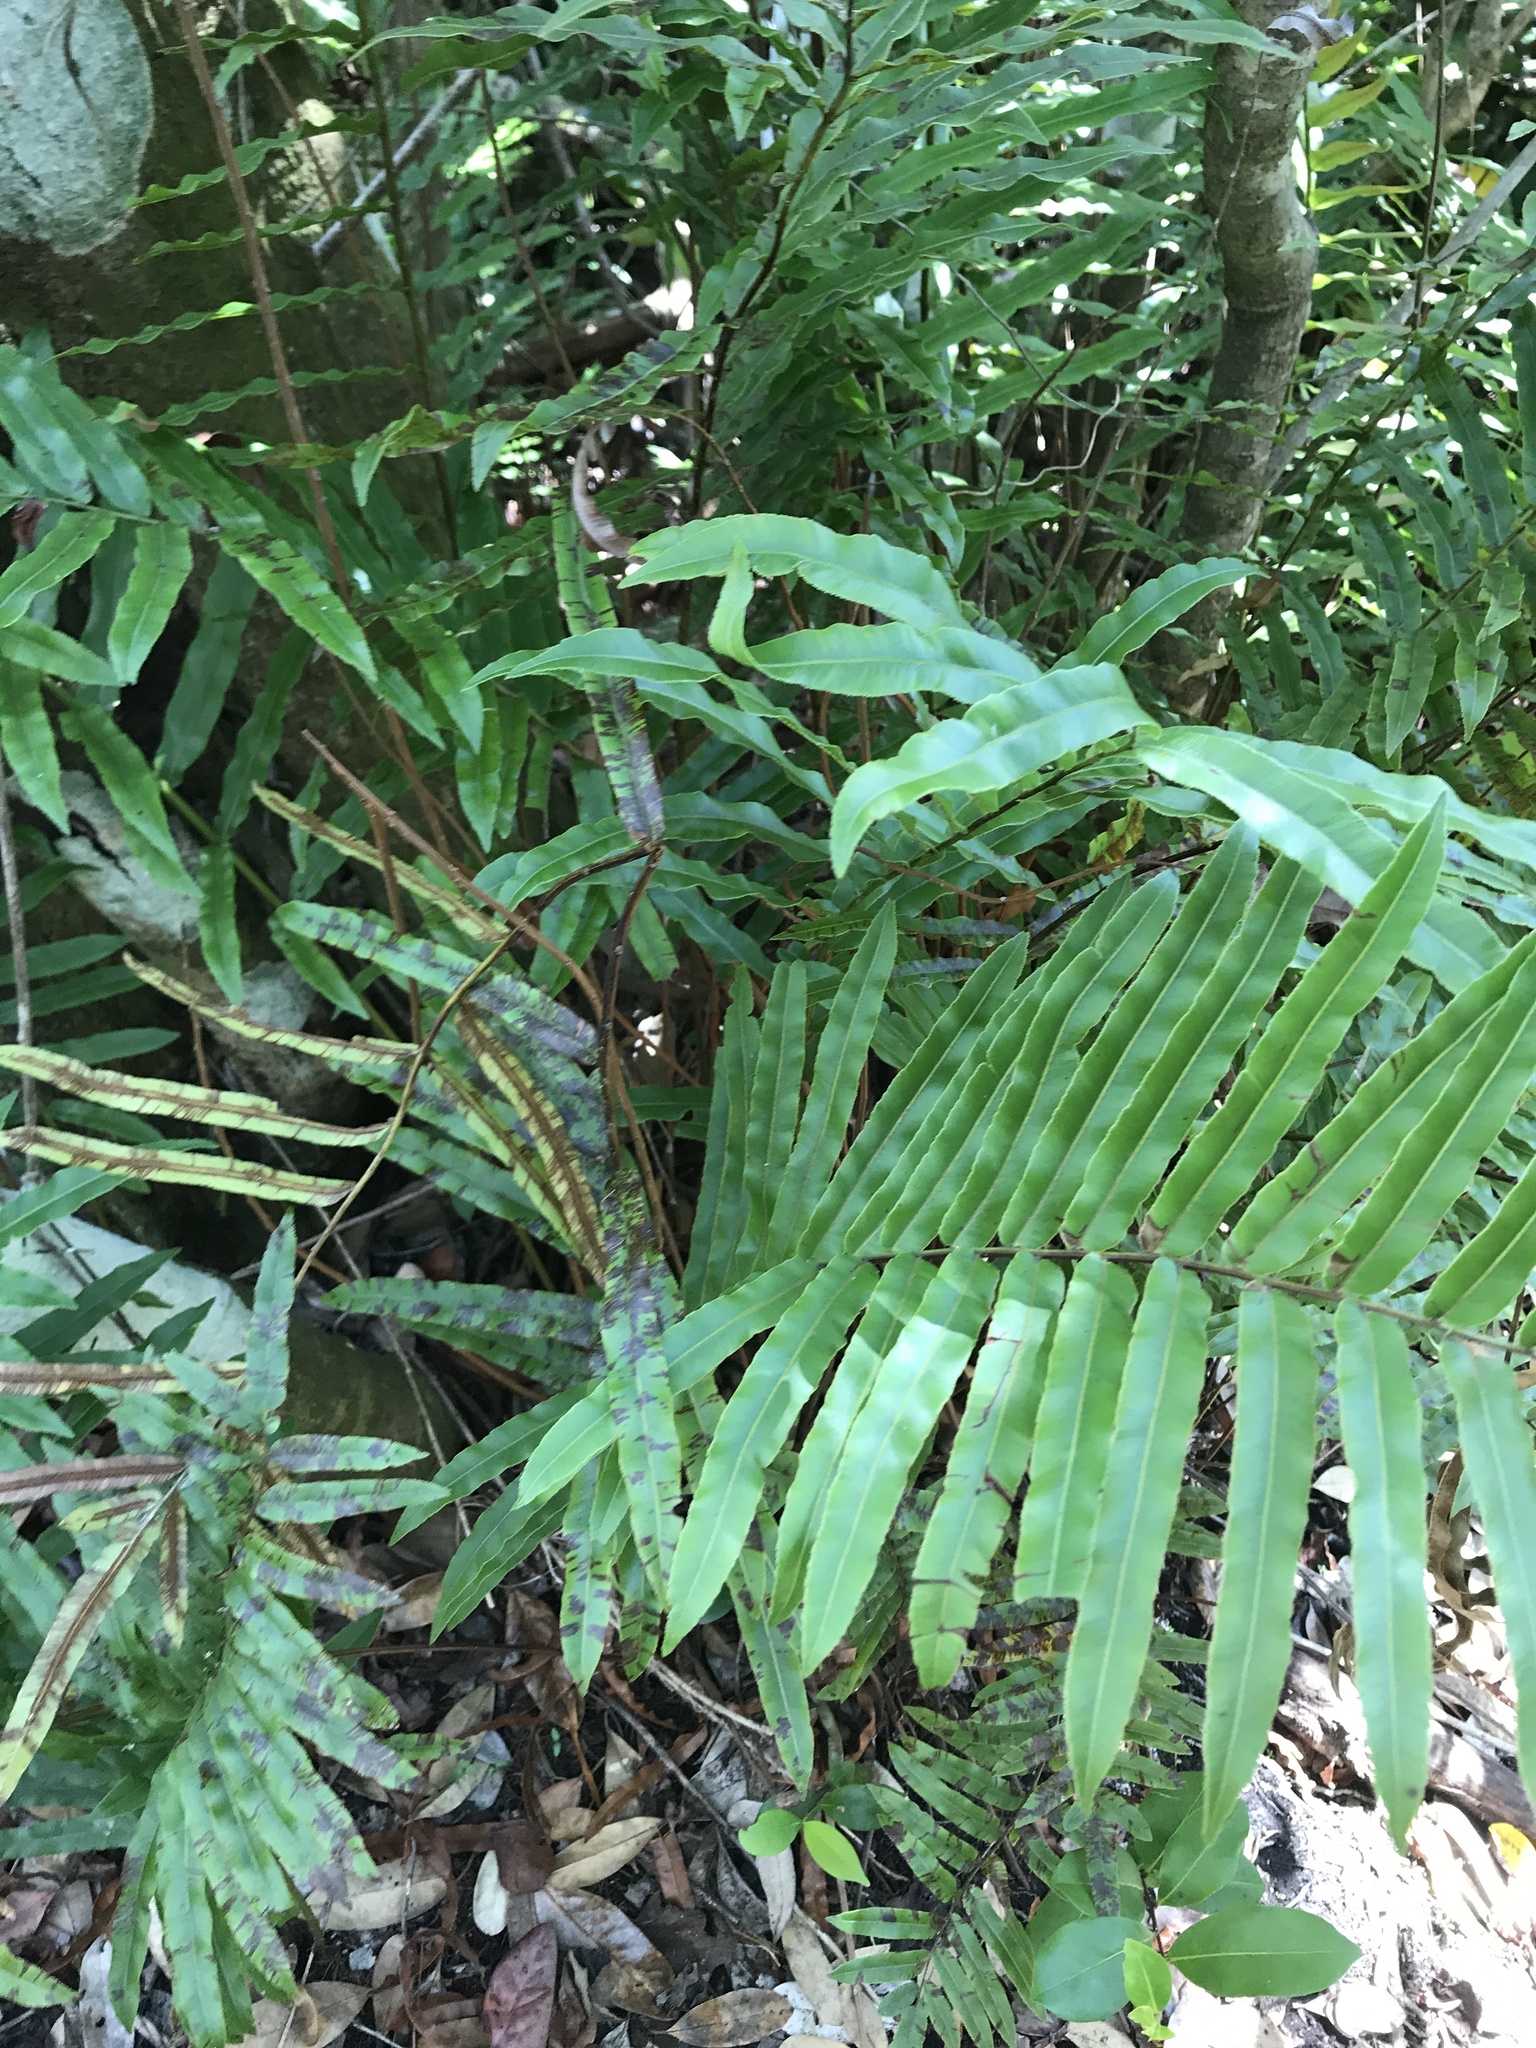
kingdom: Plantae
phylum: Tracheophyta
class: Polypodiopsida
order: Polypodiales
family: Blechnaceae
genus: Telmatoblechnum
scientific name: Telmatoblechnum serrulatum
